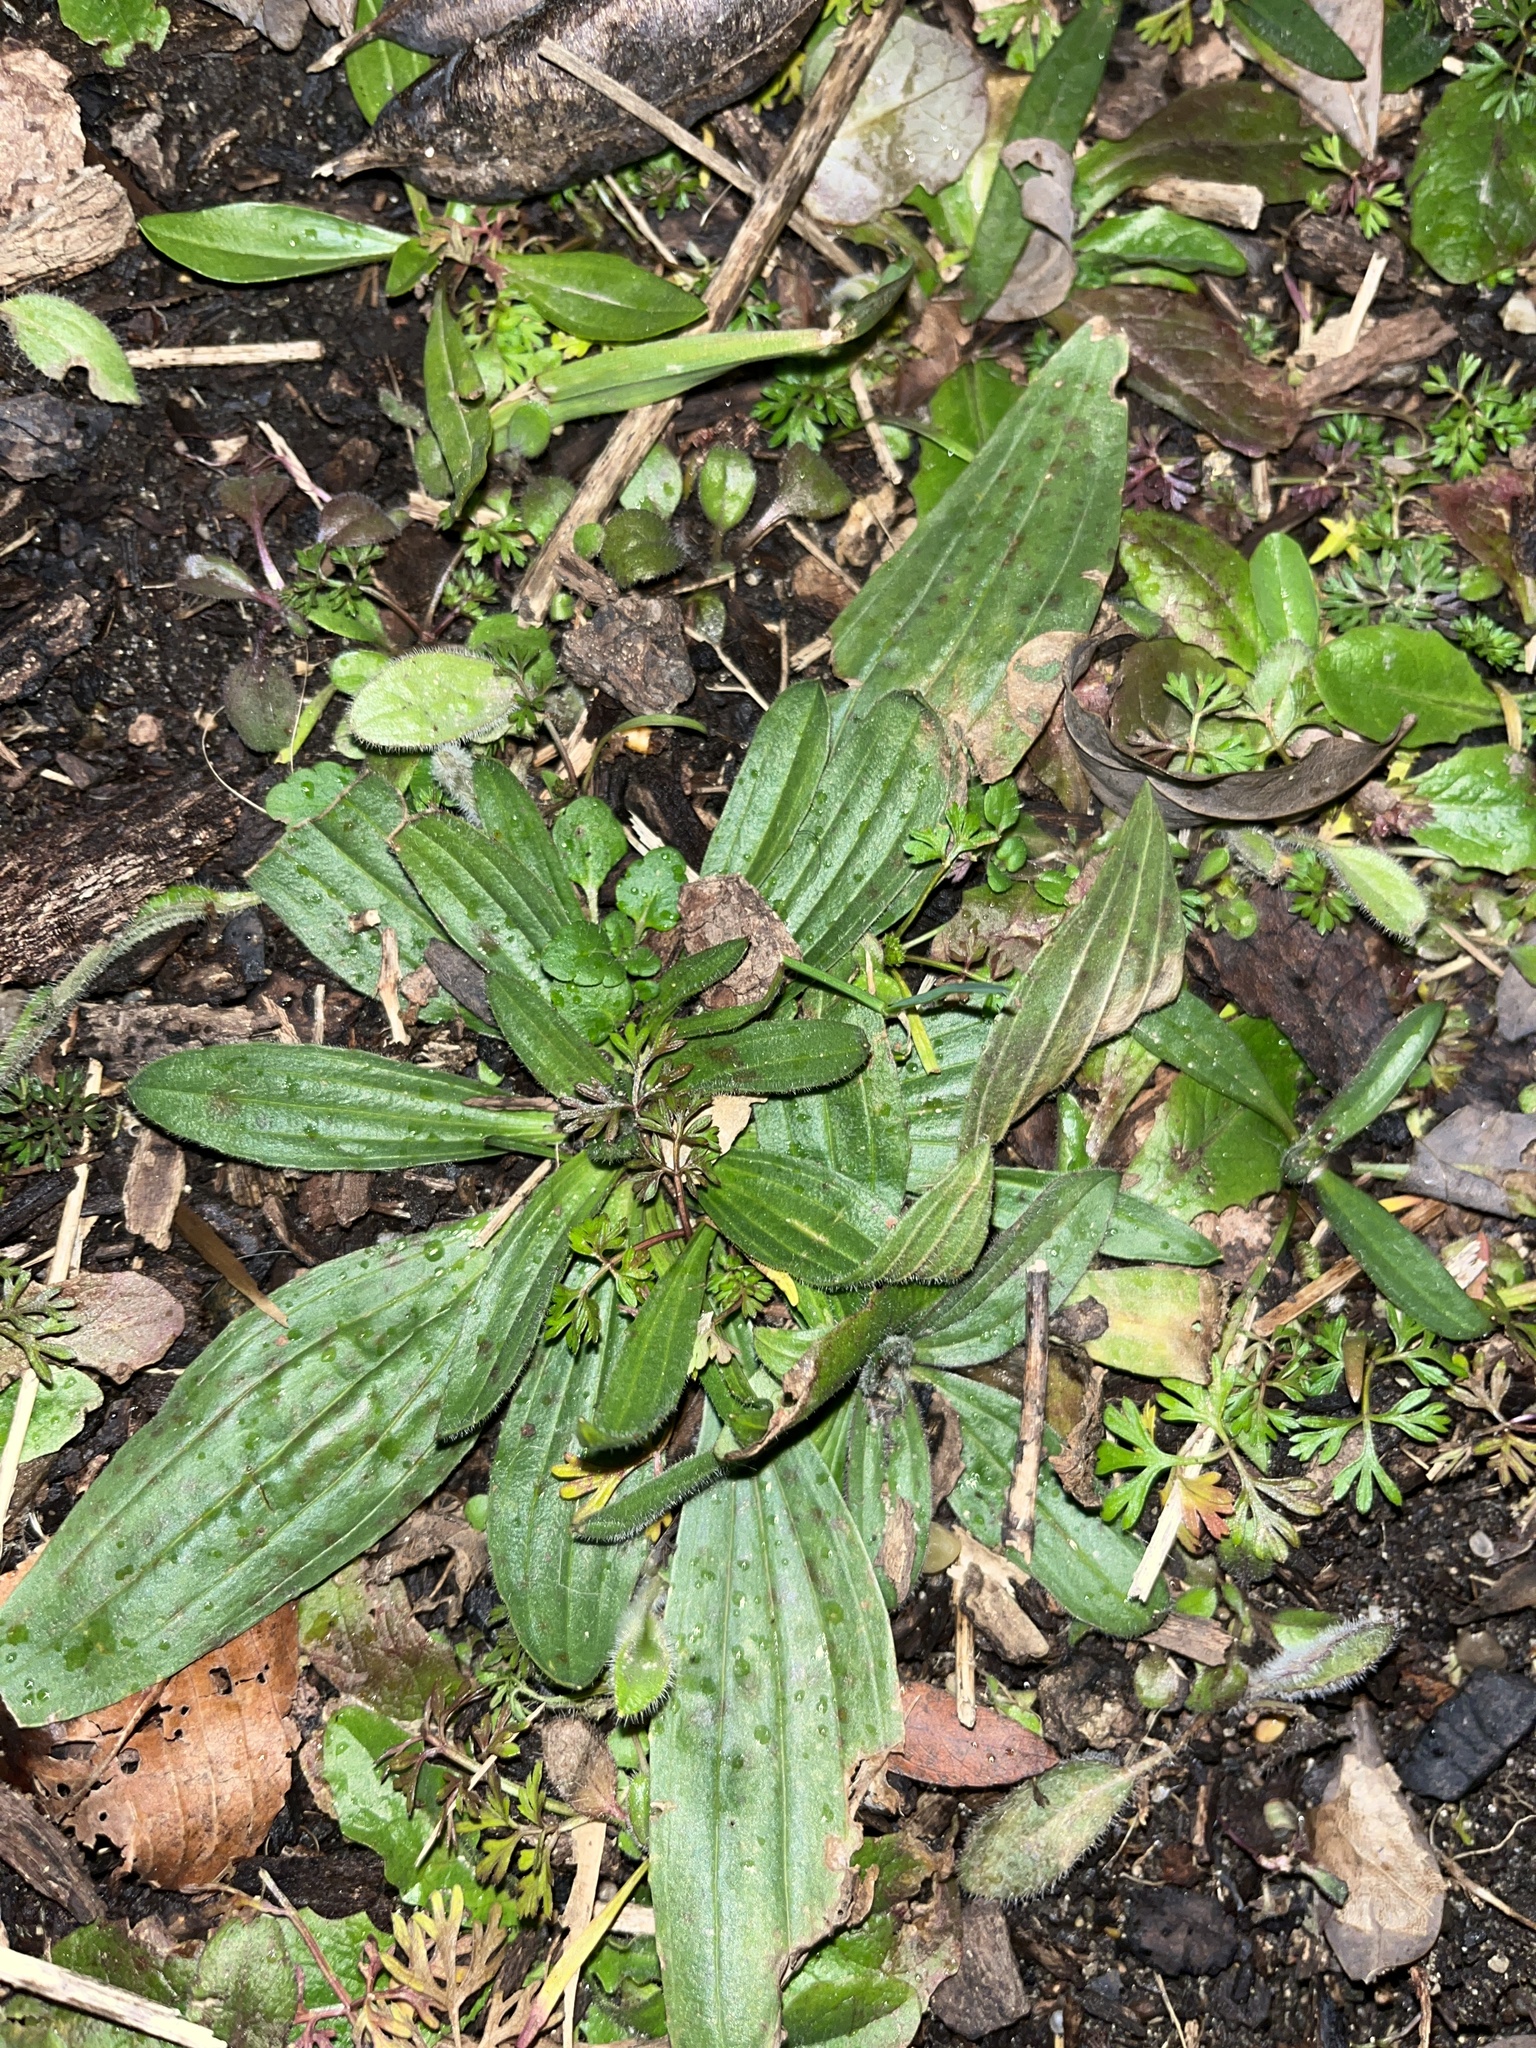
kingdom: Plantae
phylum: Tracheophyta
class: Magnoliopsida
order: Lamiales
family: Plantaginaceae
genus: Plantago
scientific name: Plantago lanceolata
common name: Ribwort plantain
